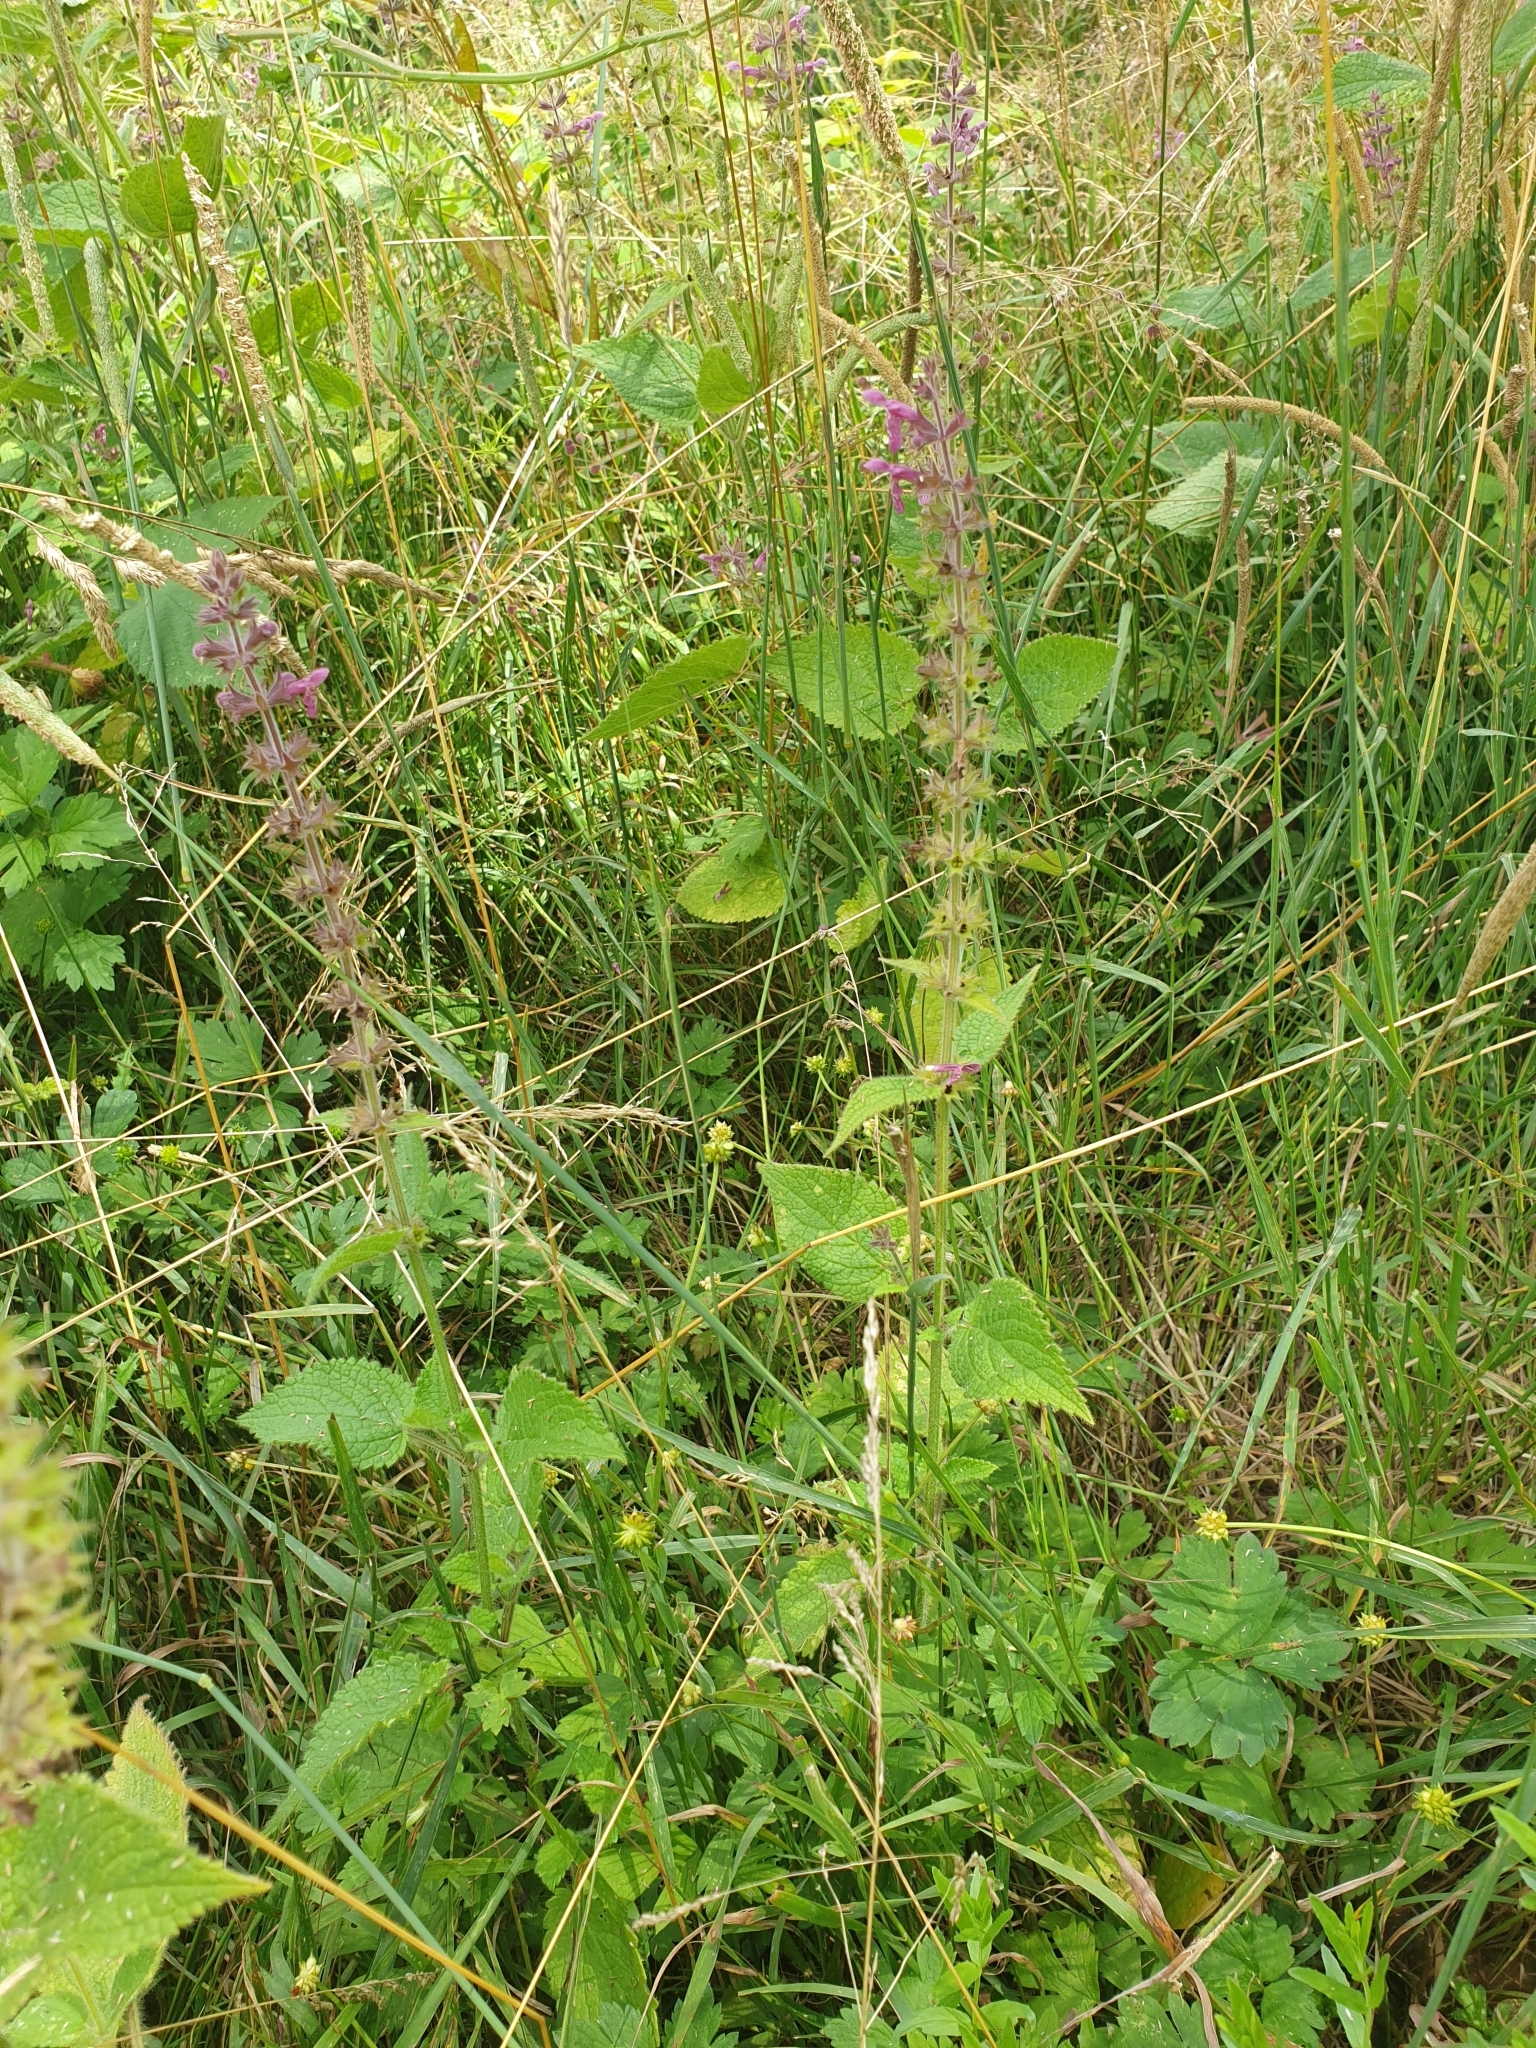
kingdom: Plantae
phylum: Tracheophyta
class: Magnoliopsida
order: Lamiales
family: Lamiaceae
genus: Stachys
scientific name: Stachys sylvatica
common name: Hedge woundwort
